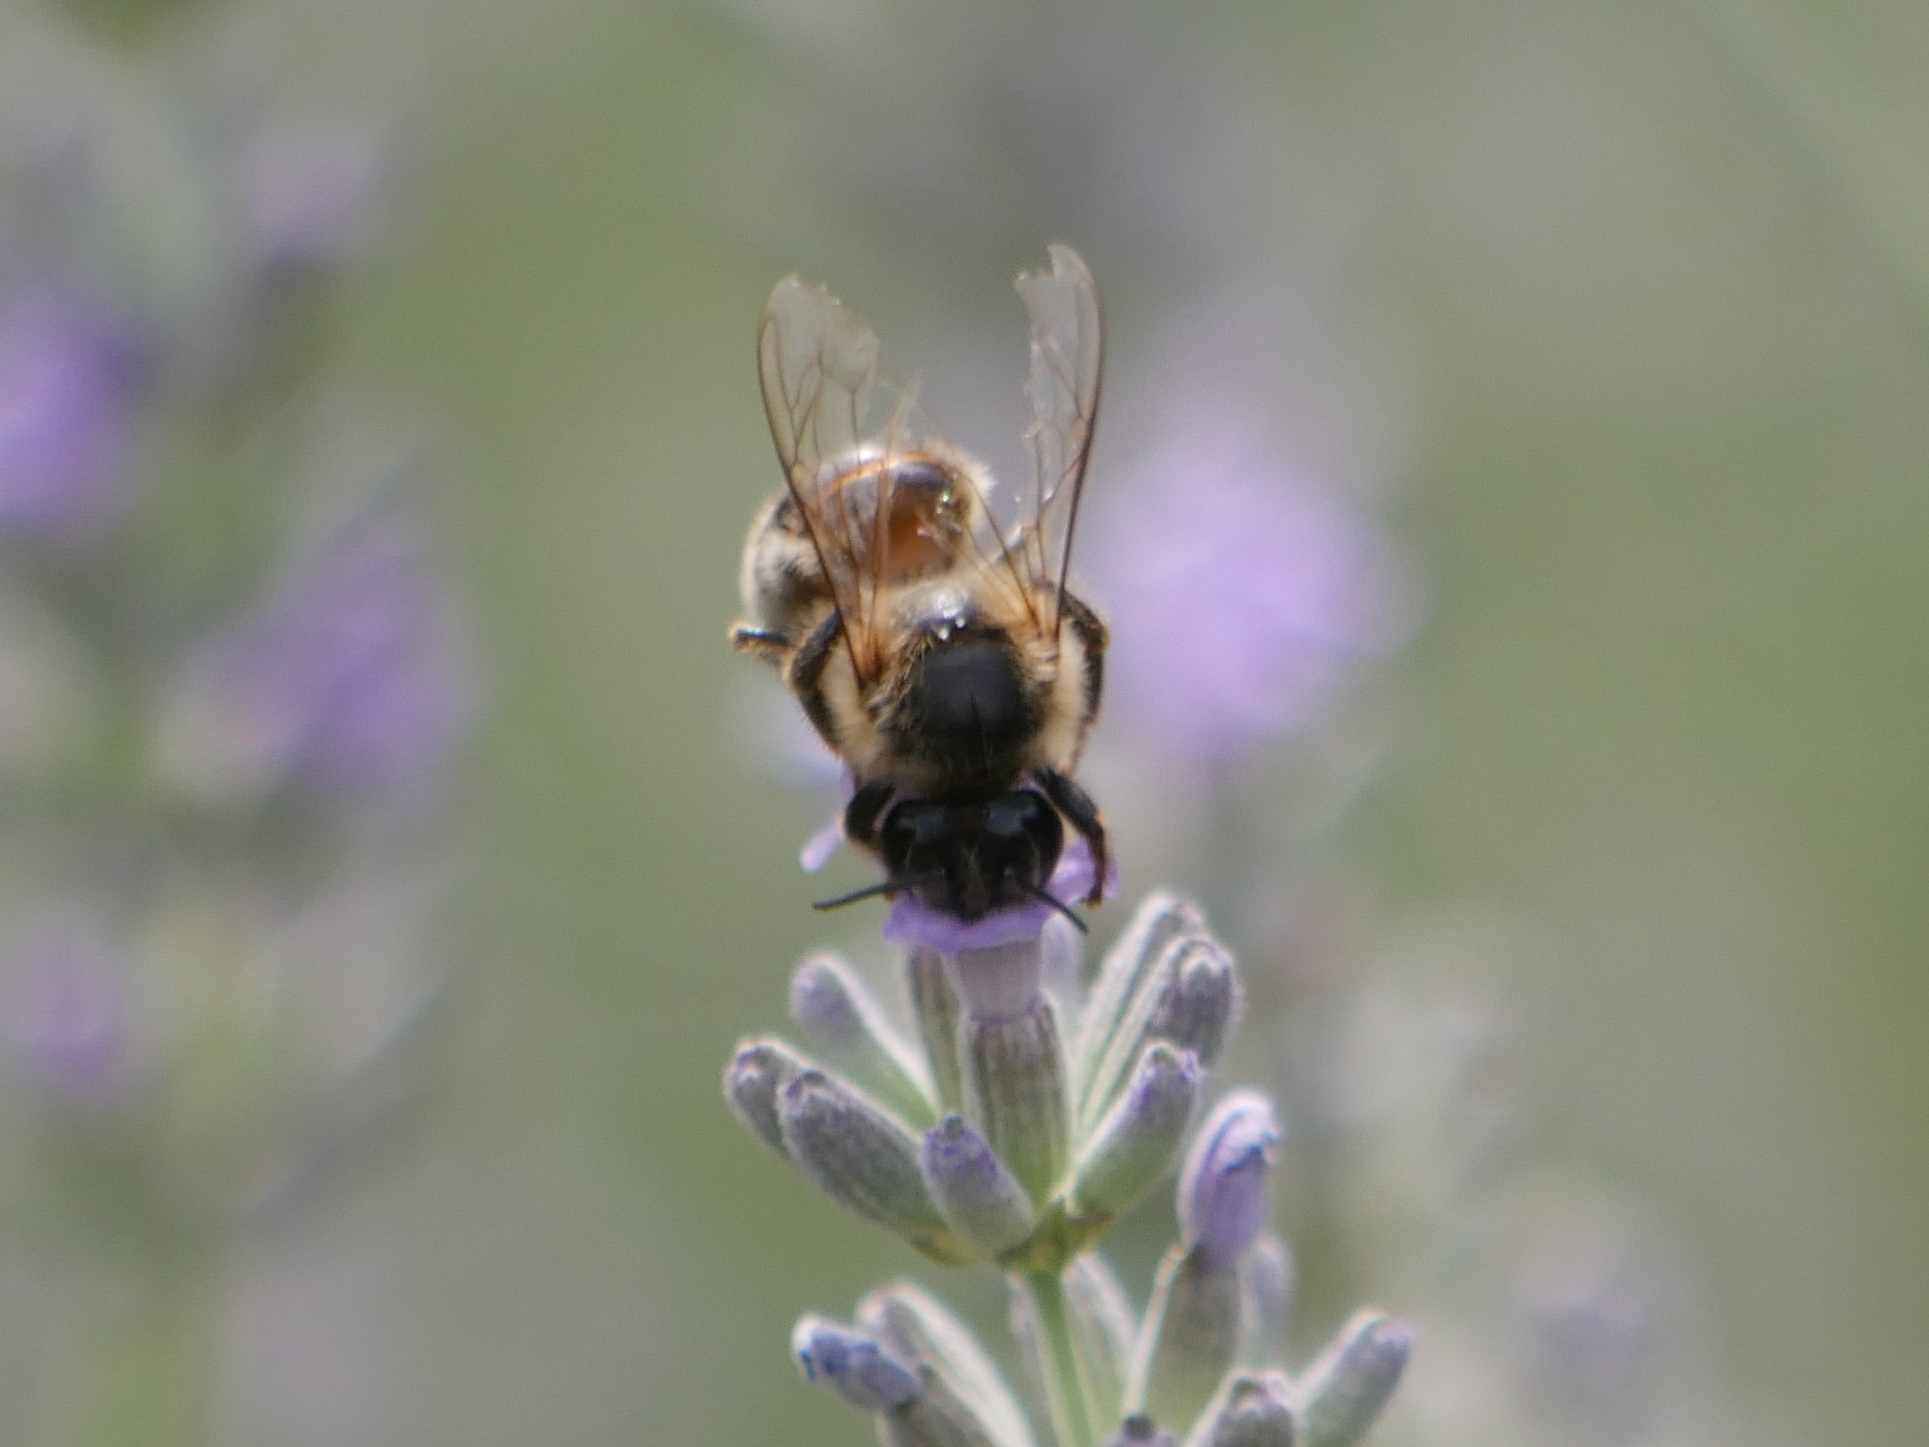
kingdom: Animalia
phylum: Arthropoda
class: Insecta
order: Hymenoptera
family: Apidae
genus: Apis
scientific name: Apis mellifera
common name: Honey bee
